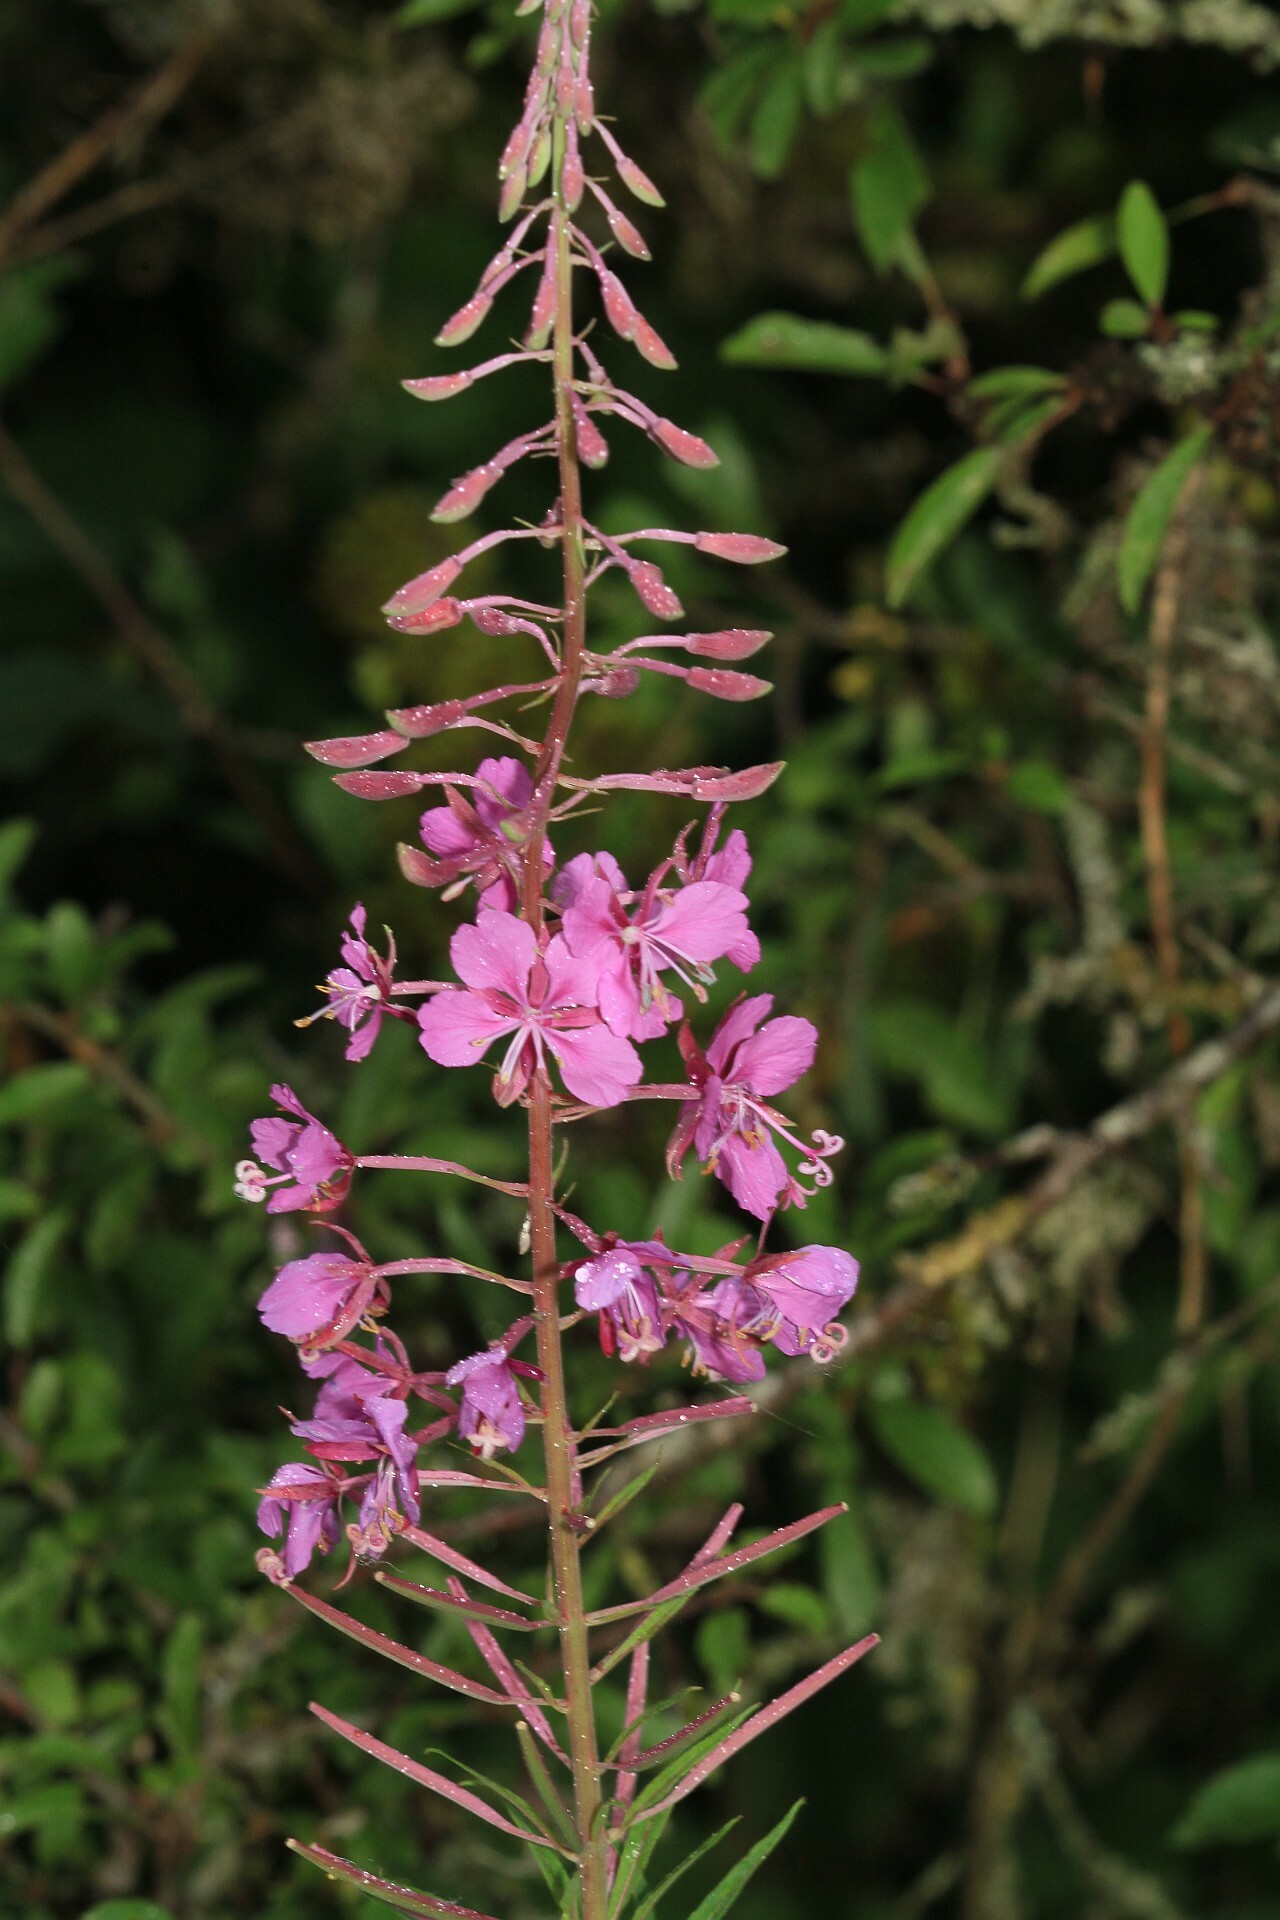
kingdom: Plantae
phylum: Tracheophyta
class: Magnoliopsida
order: Myrtales
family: Onagraceae
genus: Chamaenerion
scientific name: Chamaenerion angustifolium
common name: Fireweed
